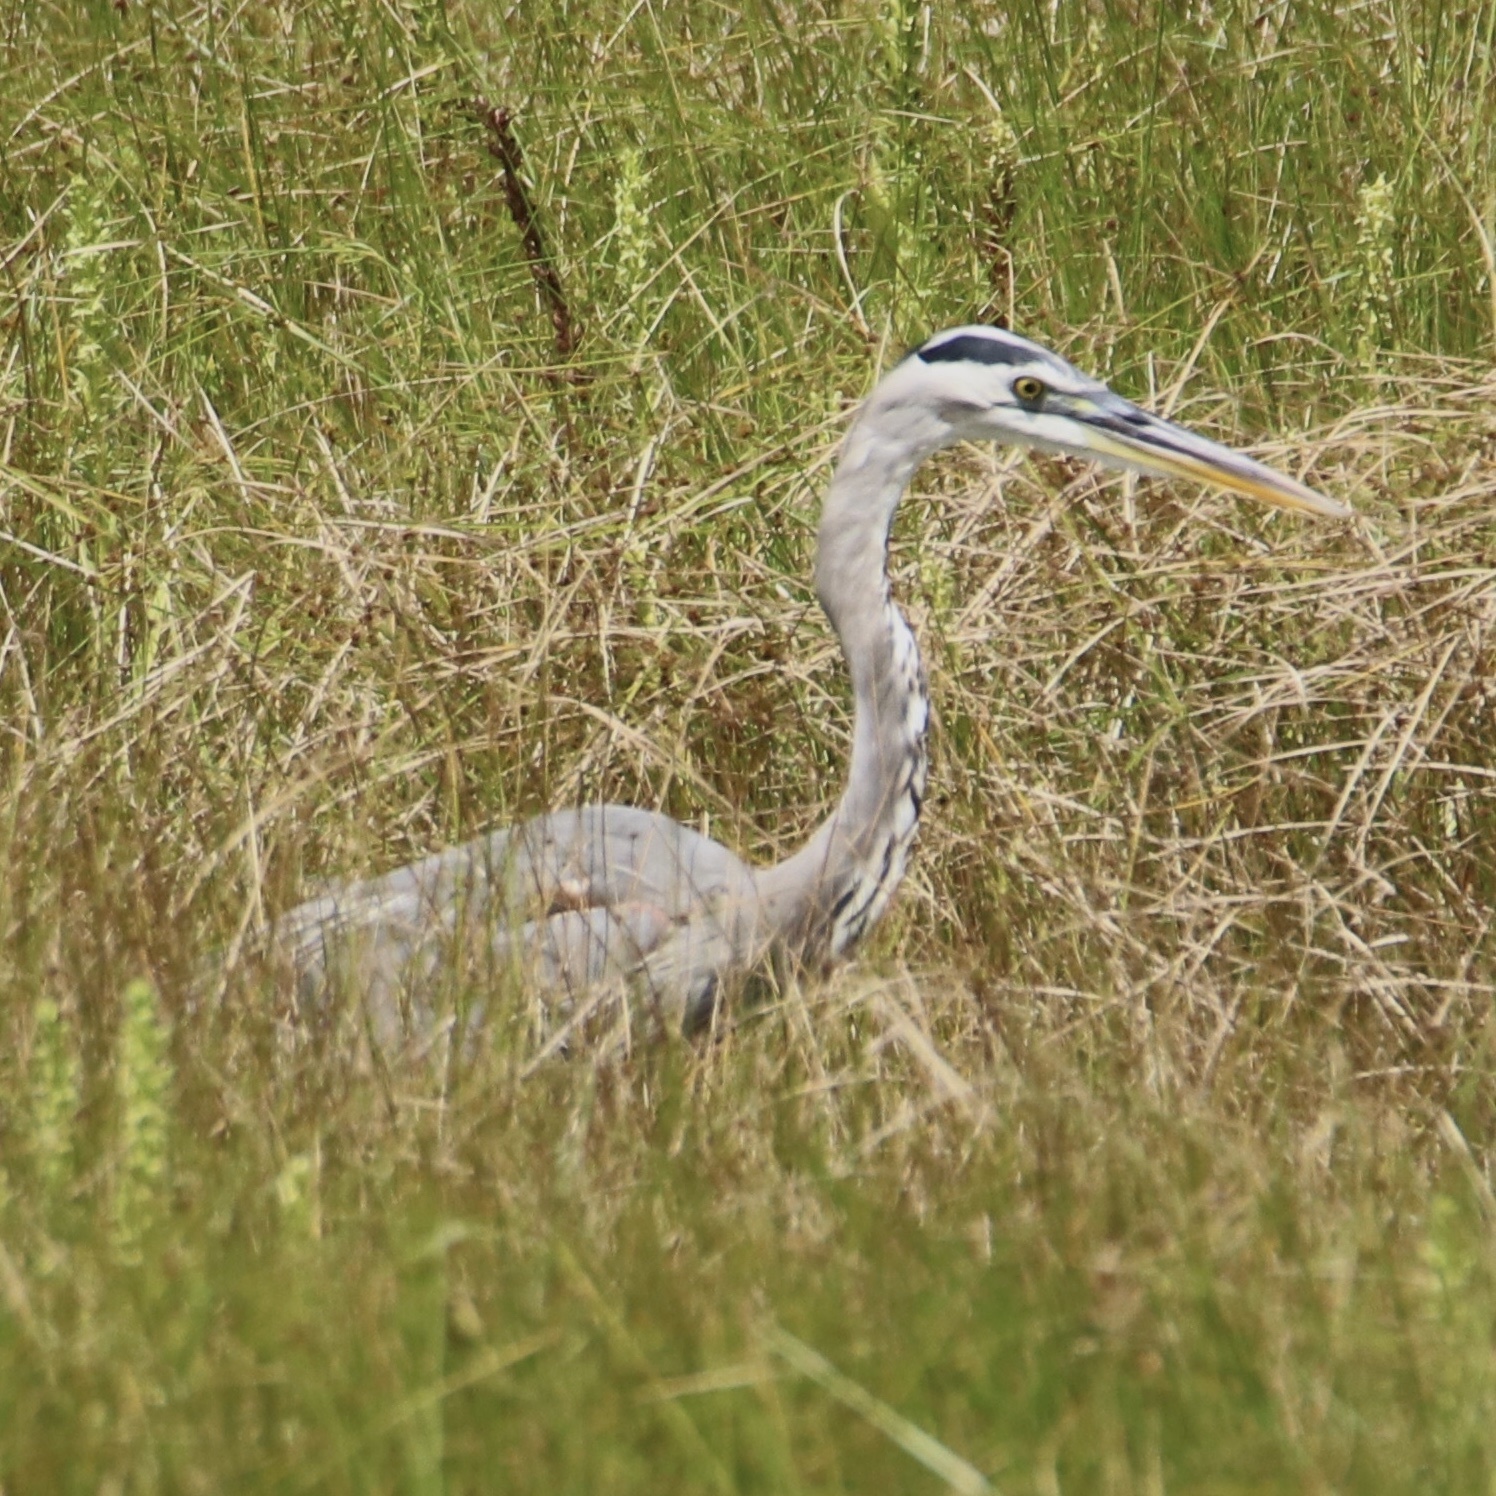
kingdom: Animalia
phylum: Chordata
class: Aves
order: Pelecaniformes
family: Ardeidae
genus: Ardea
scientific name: Ardea herodias
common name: Great blue heron
